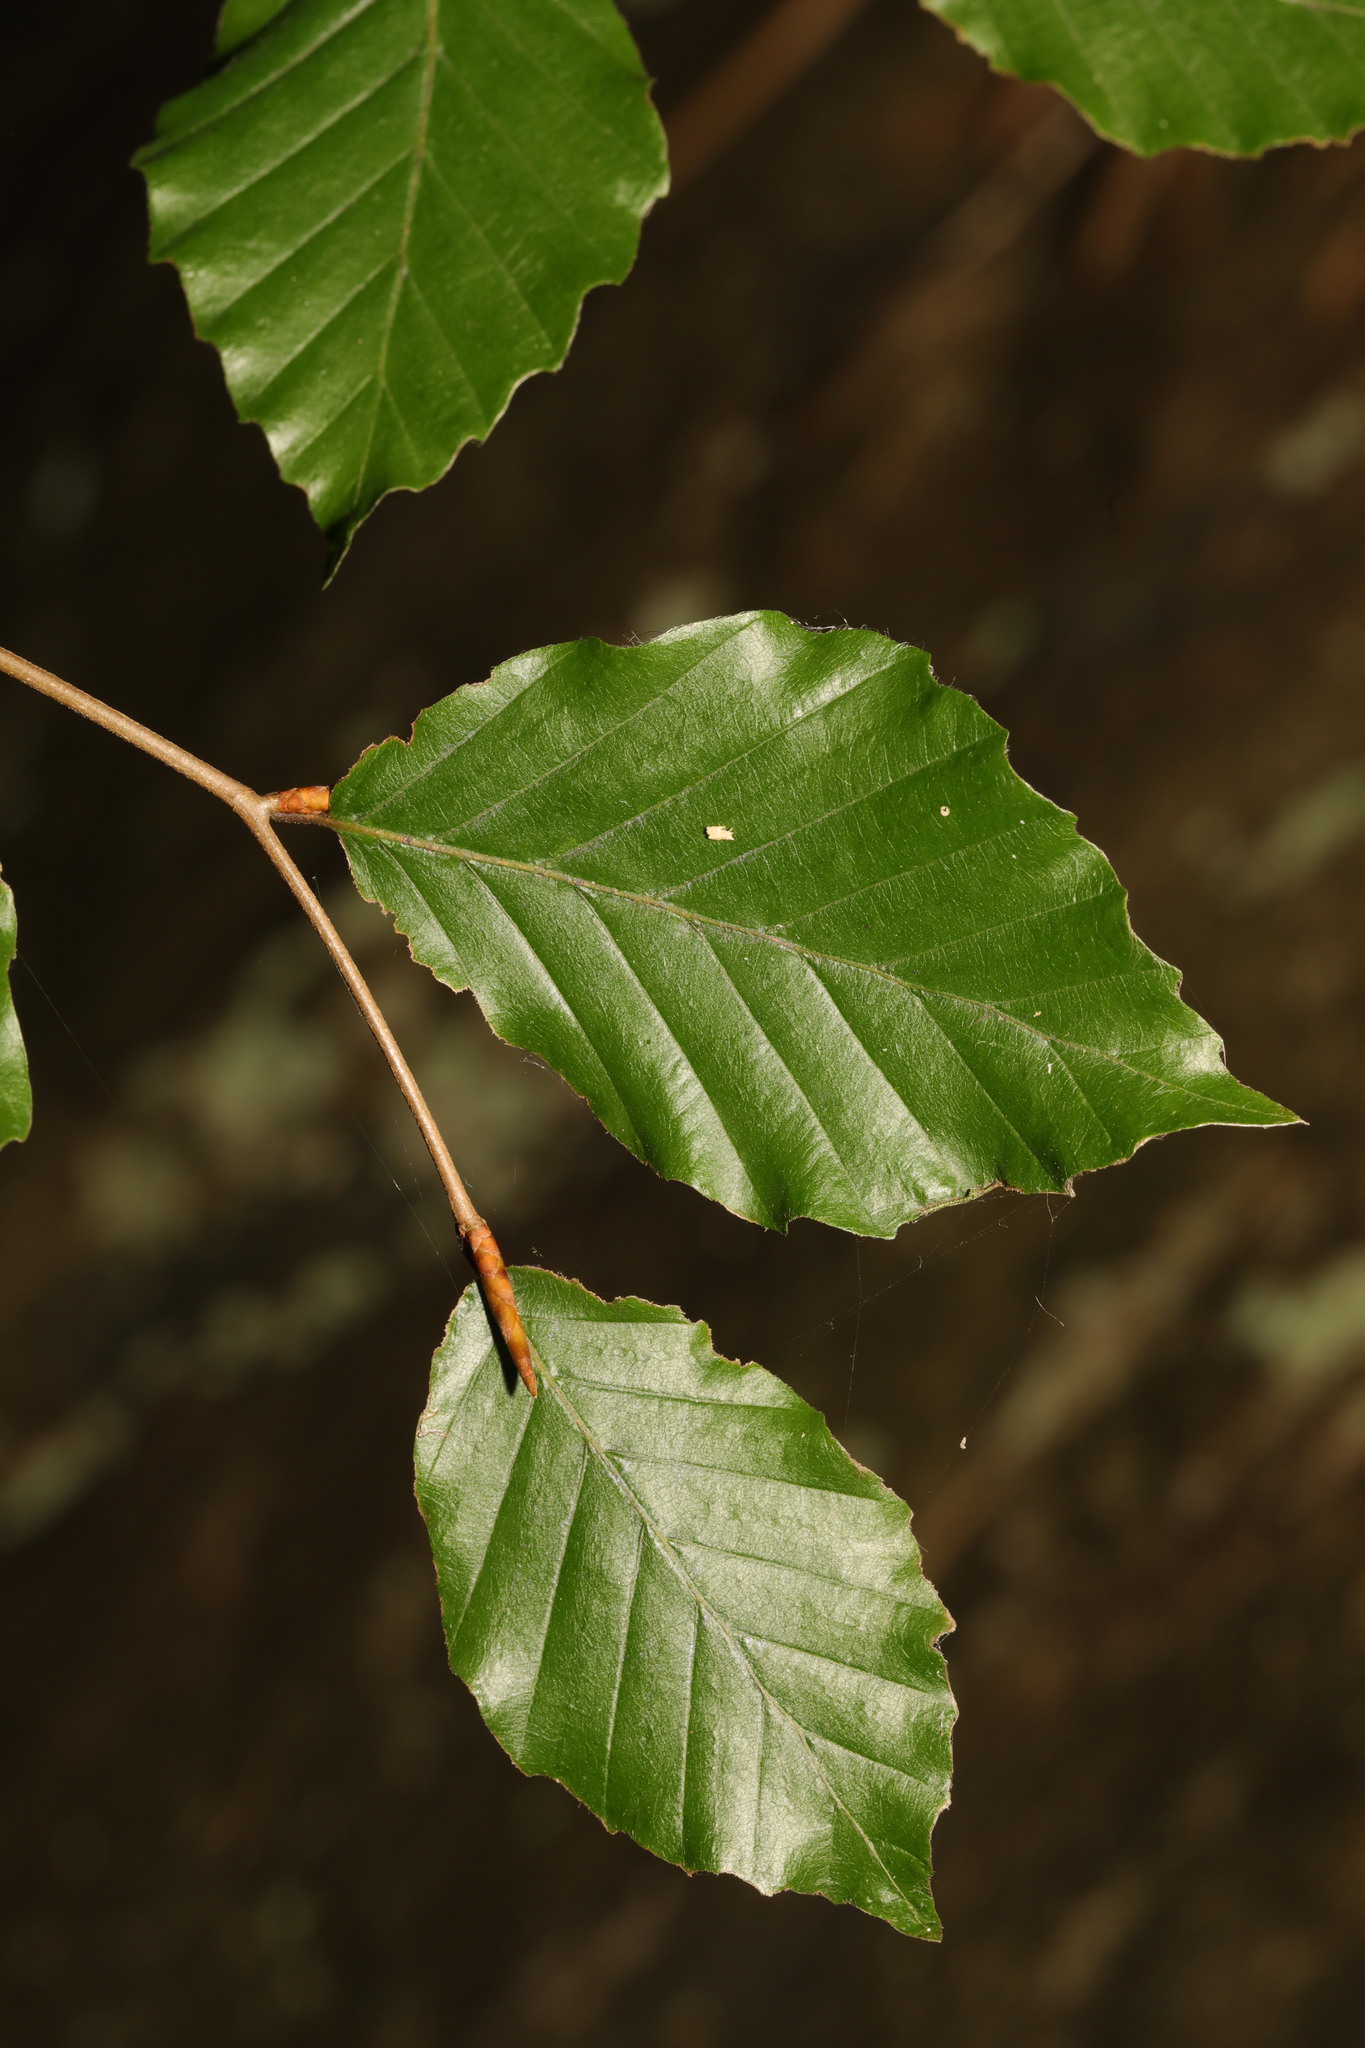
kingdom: Plantae
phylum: Tracheophyta
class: Magnoliopsida
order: Fagales
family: Fagaceae
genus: Fagus
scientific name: Fagus sylvatica
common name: Beech
